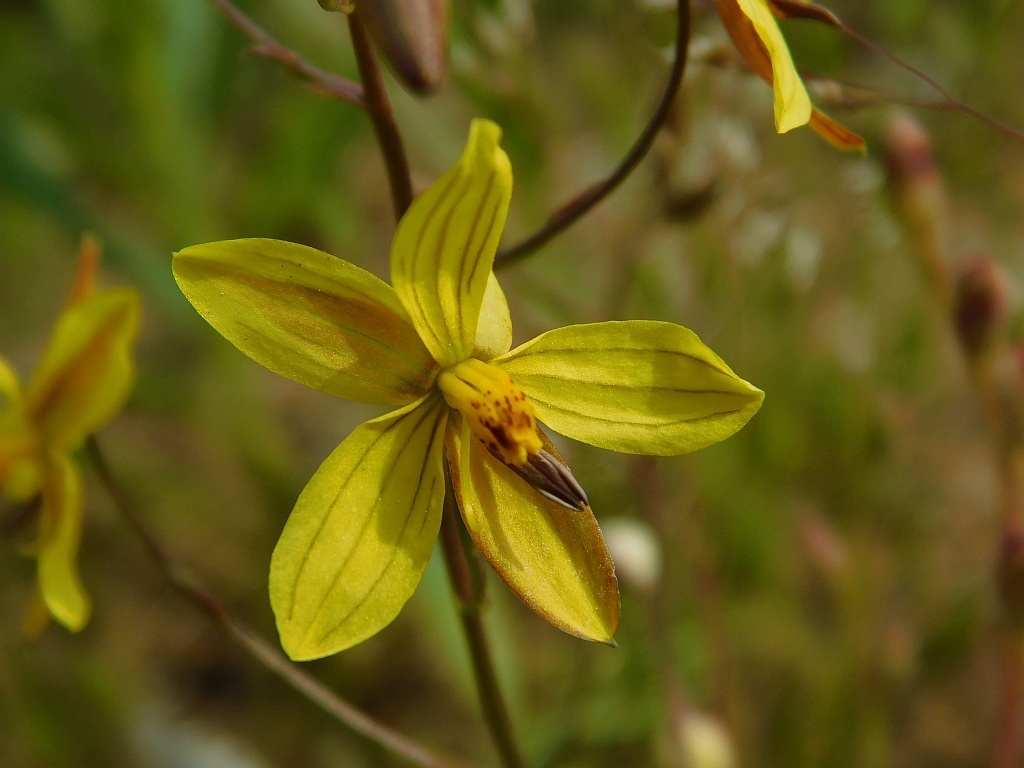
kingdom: Plantae
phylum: Tracheophyta
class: Liliopsida
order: Asparagales
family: Tecophilaeaceae
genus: Cyanella
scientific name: Cyanella lutea
